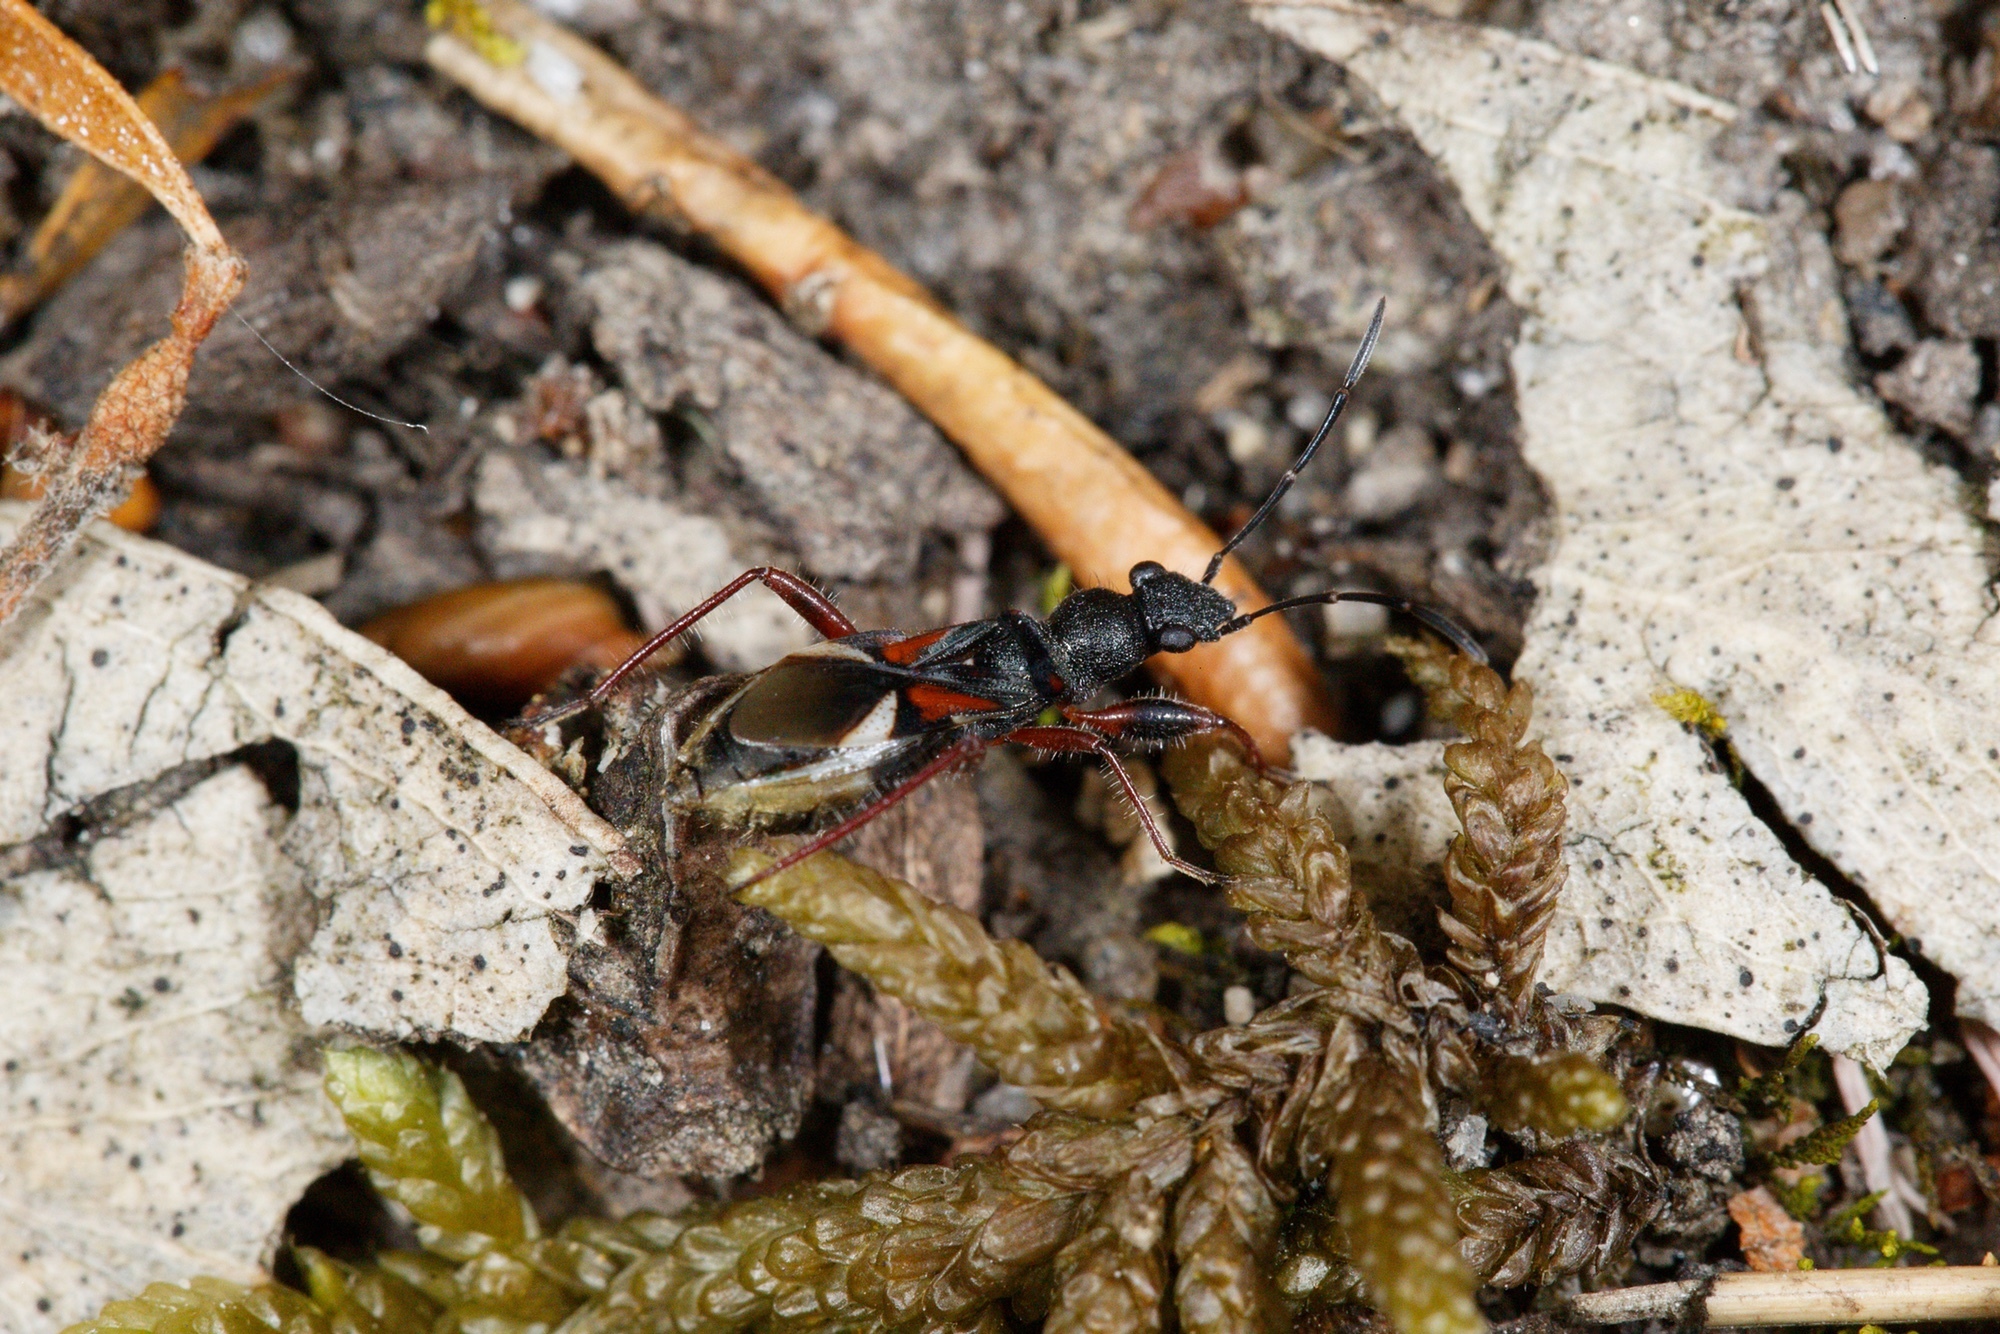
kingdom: Animalia
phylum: Arthropoda
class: Insecta
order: Hemiptera
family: Rhyparochromidae
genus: Daerlac
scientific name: Daerlac cephalotes
